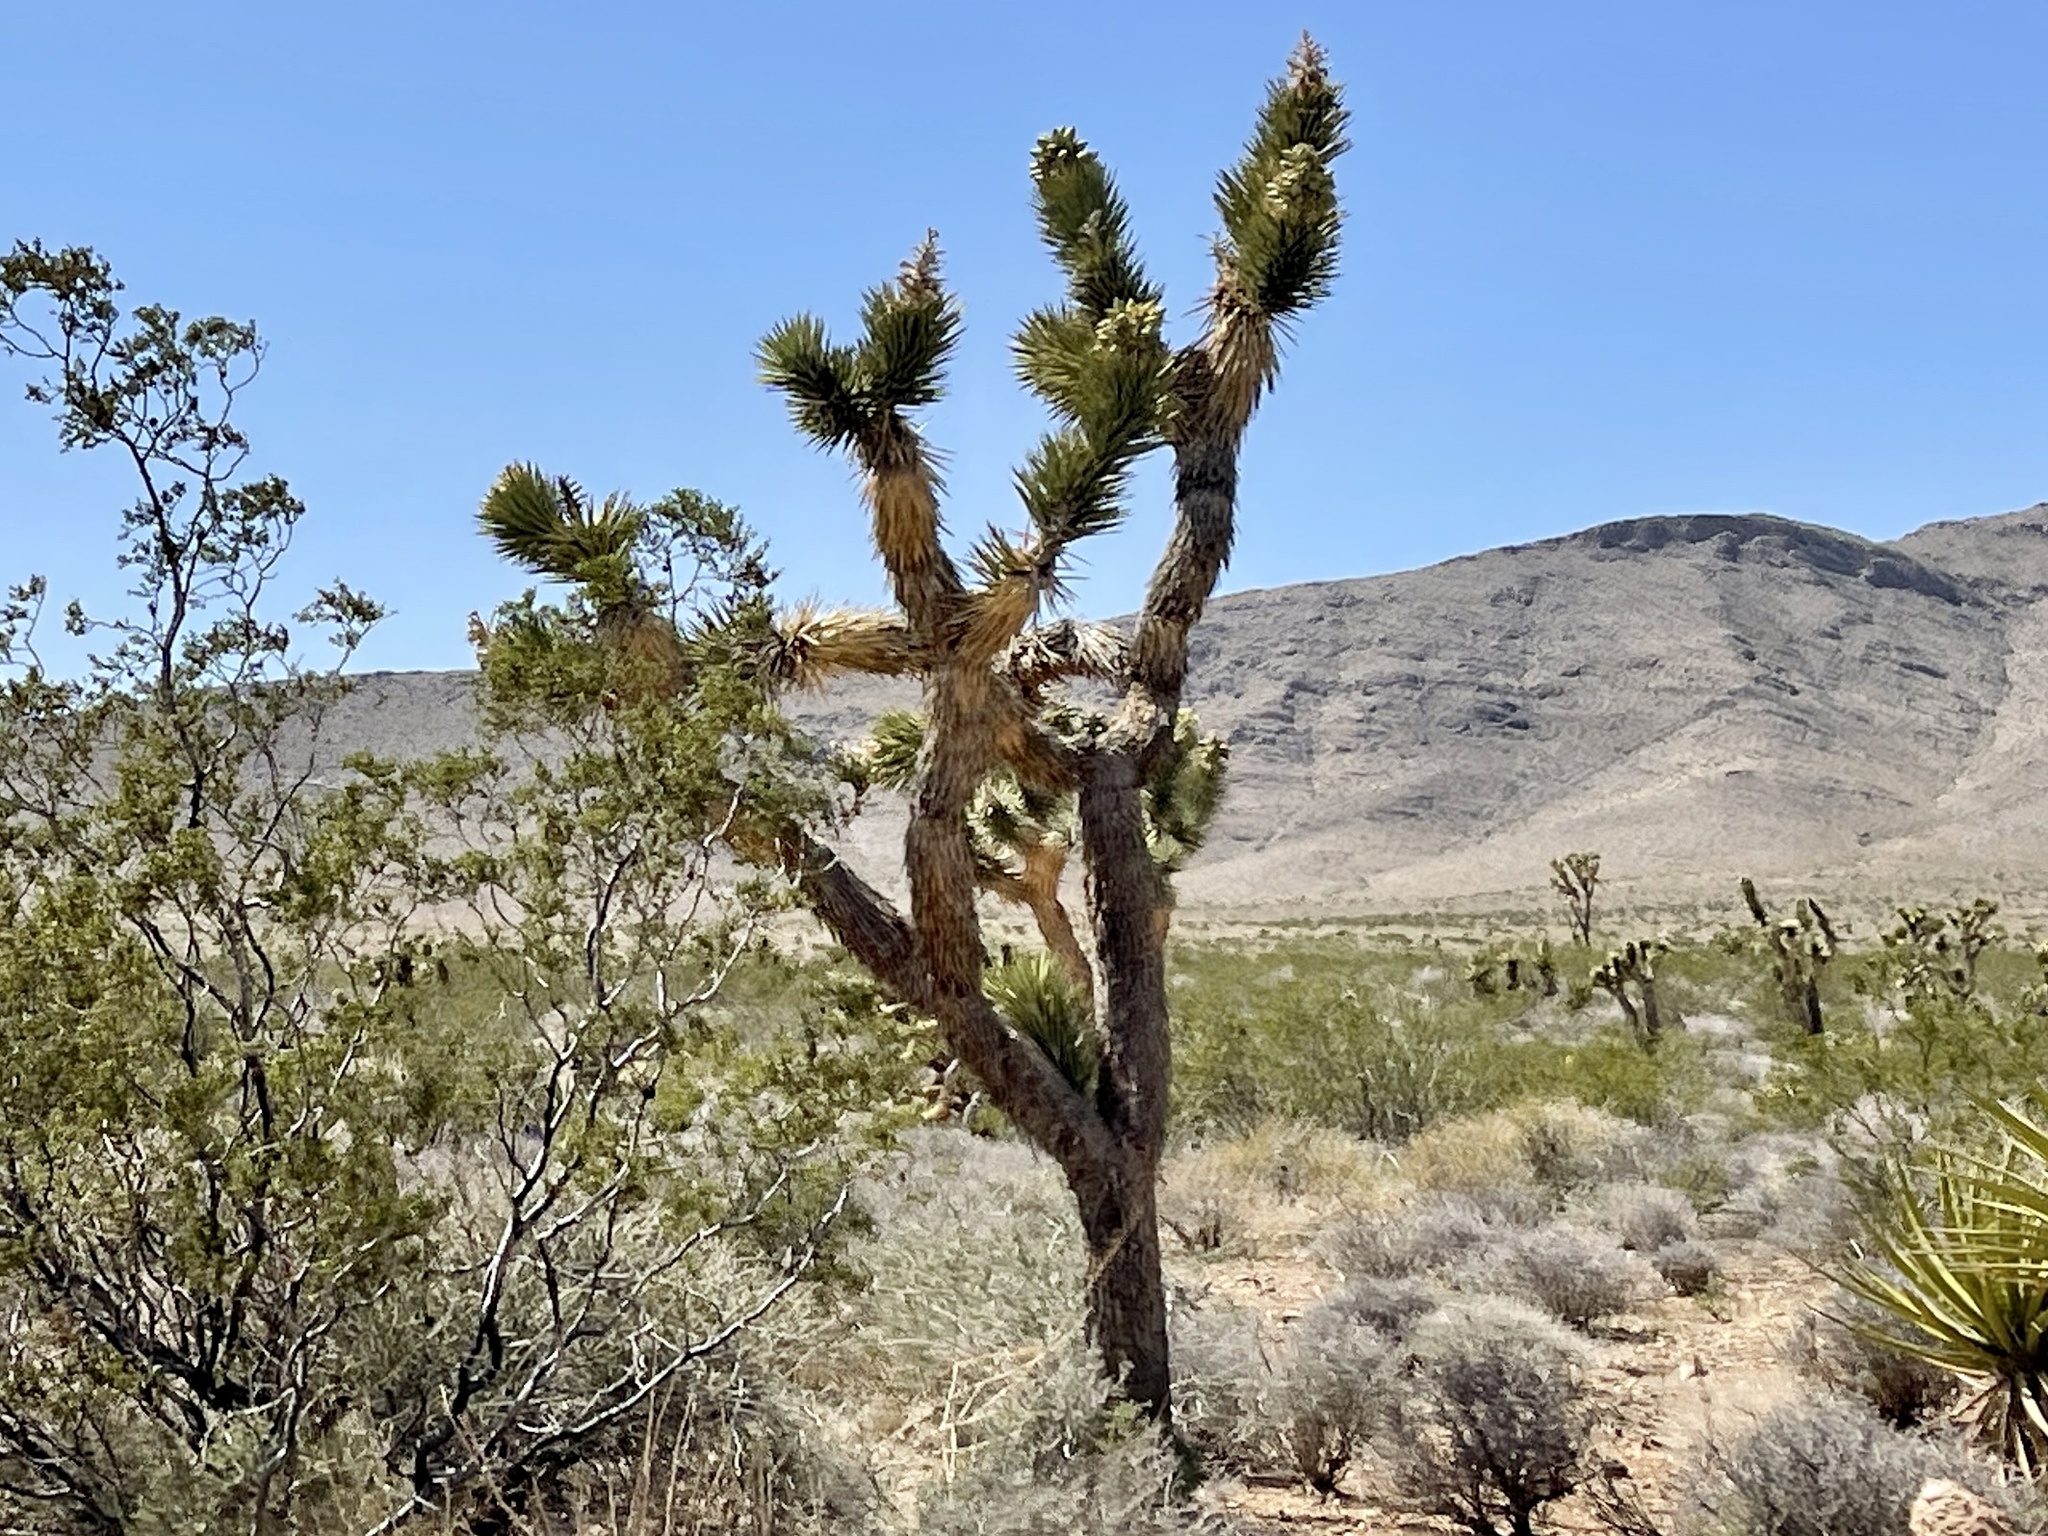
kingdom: Plantae
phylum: Tracheophyta
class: Liliopsida
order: Asparagales
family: Asparagaceae
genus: Yucca
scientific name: Yucca brevifolia
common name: Joshua tree
